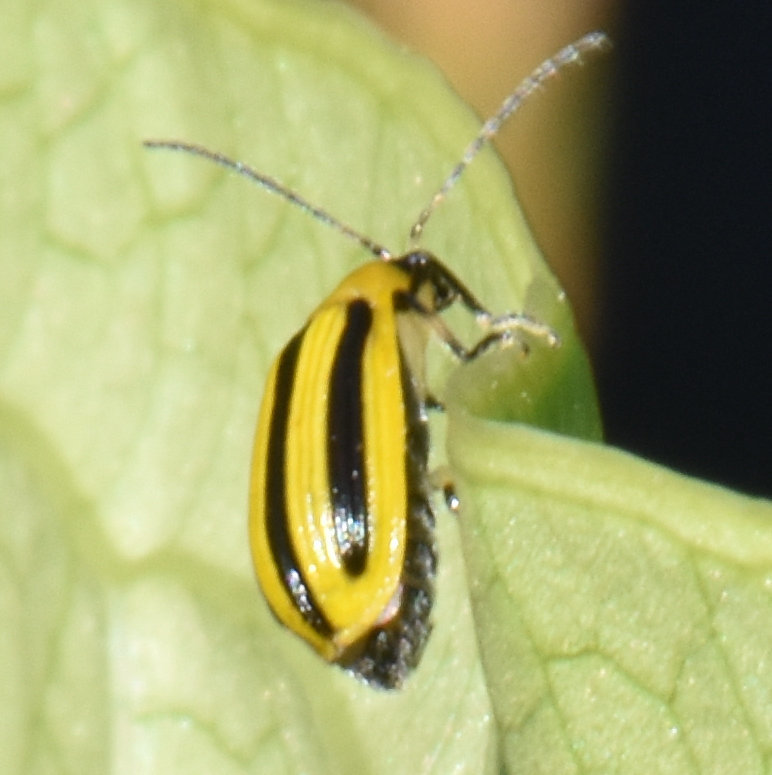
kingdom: Animalia
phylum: Arthropoda
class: Insecta
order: Coleoptera
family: Chrysomelidae
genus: Acalymma
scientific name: Acalymma vittatum
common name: Striped cucumber beetle
